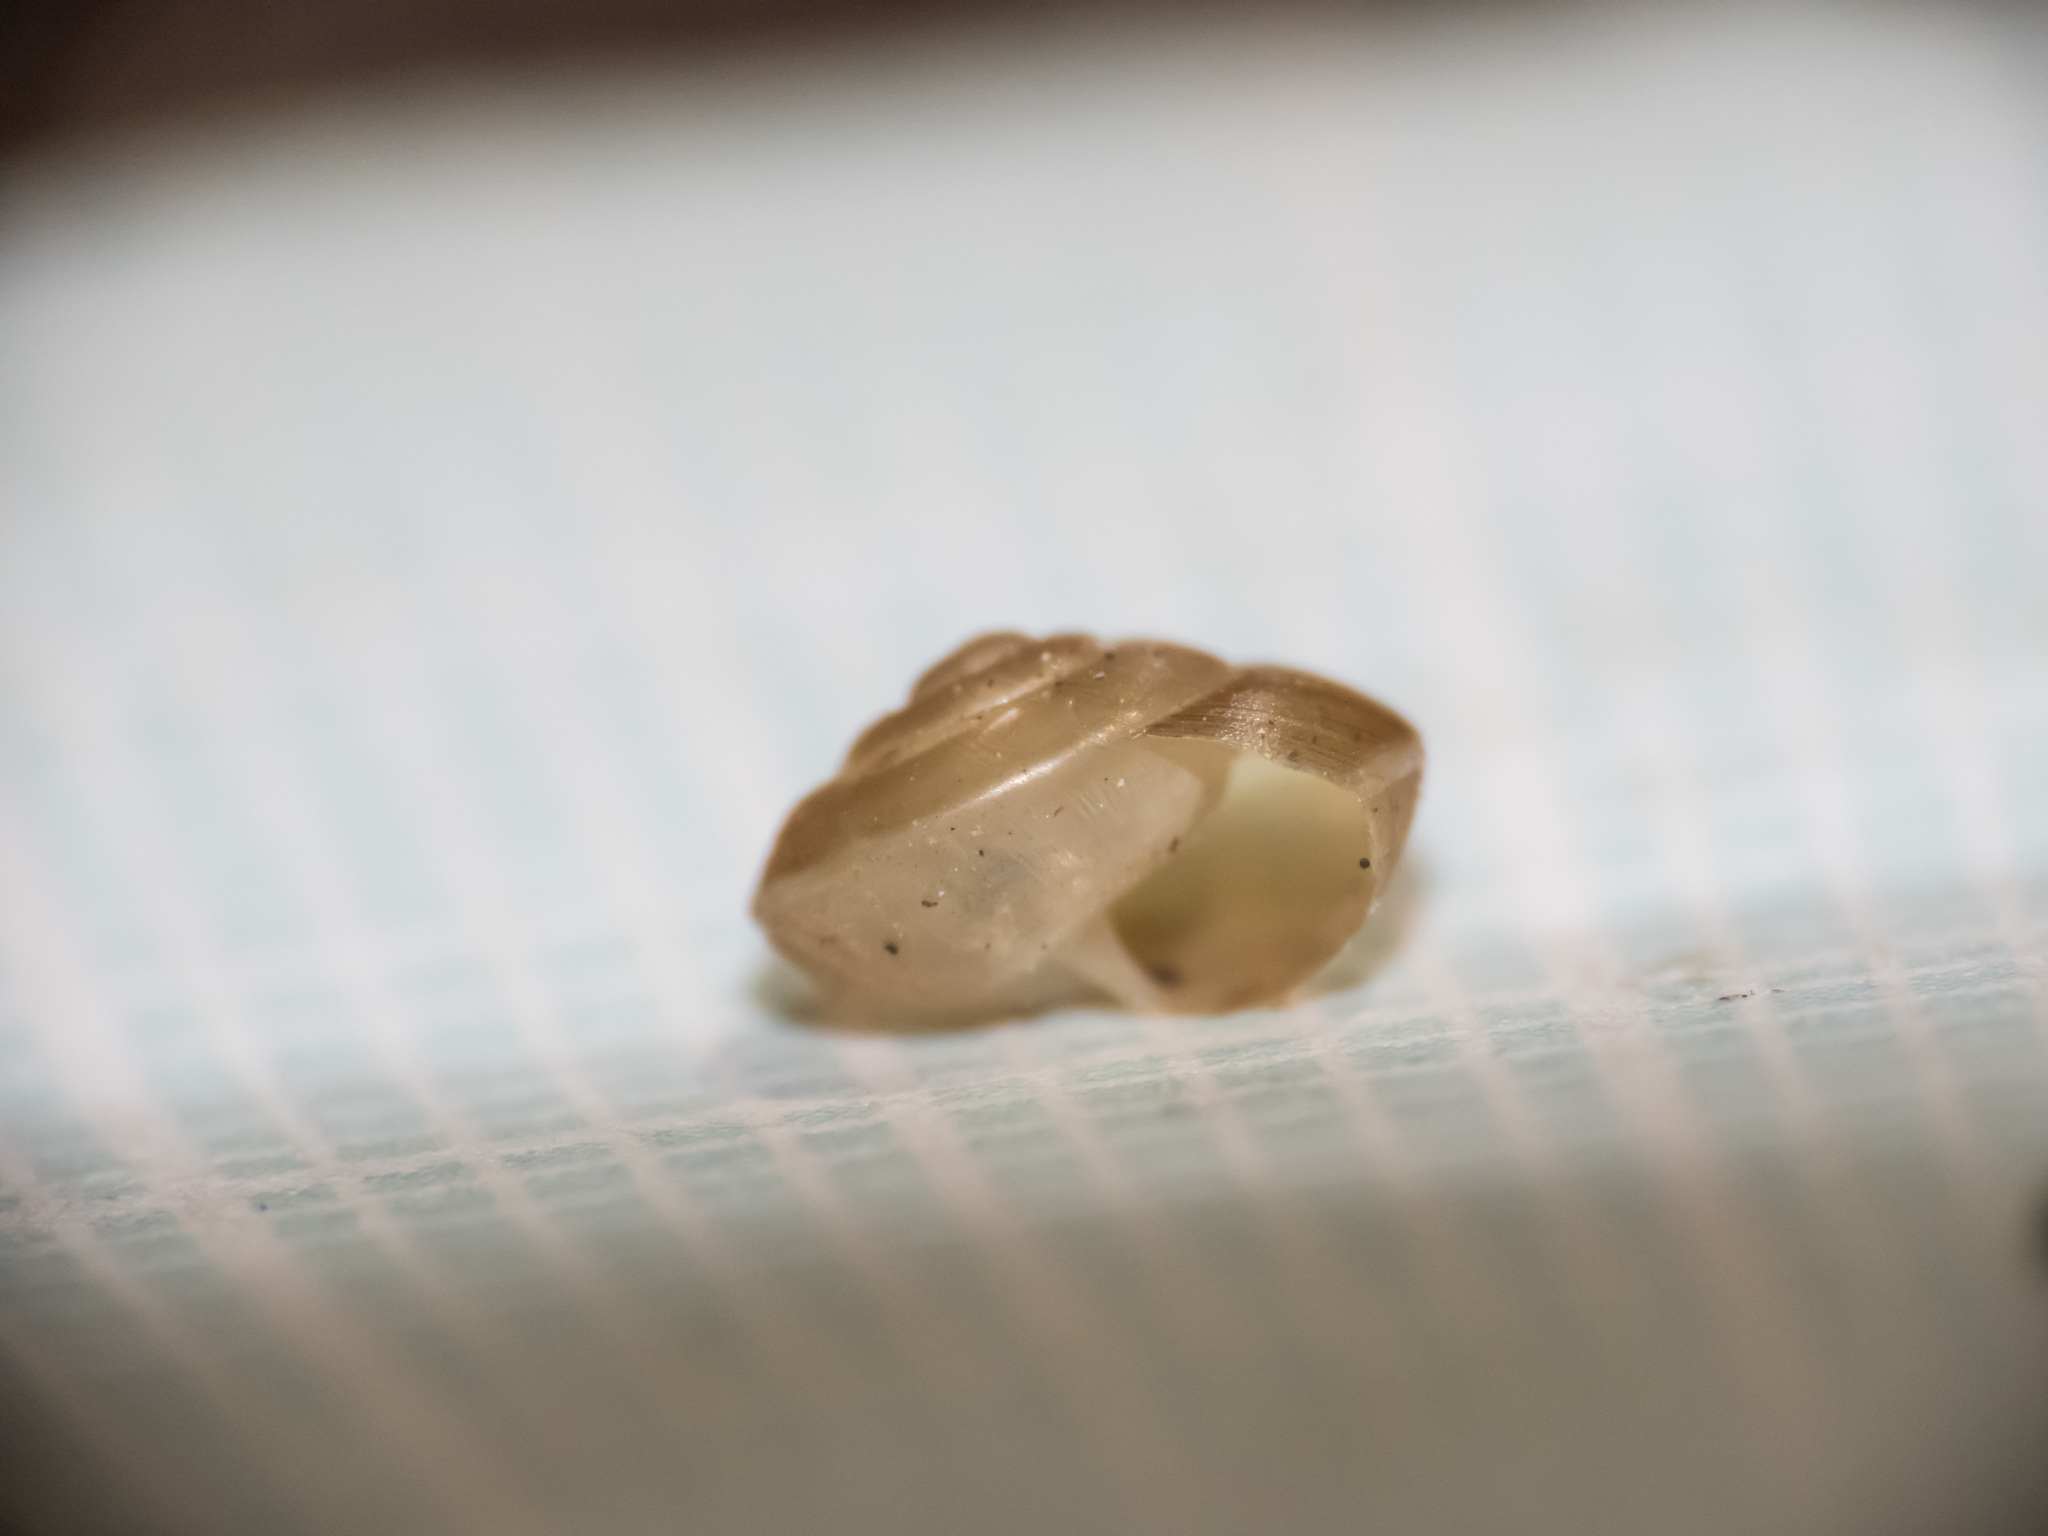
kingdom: Animalia
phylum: Mollusca
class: Gastropoda
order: Stylommatophora
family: Hygromiidae
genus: Hygromia
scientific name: Hygromia cinctella
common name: Girdled snail
